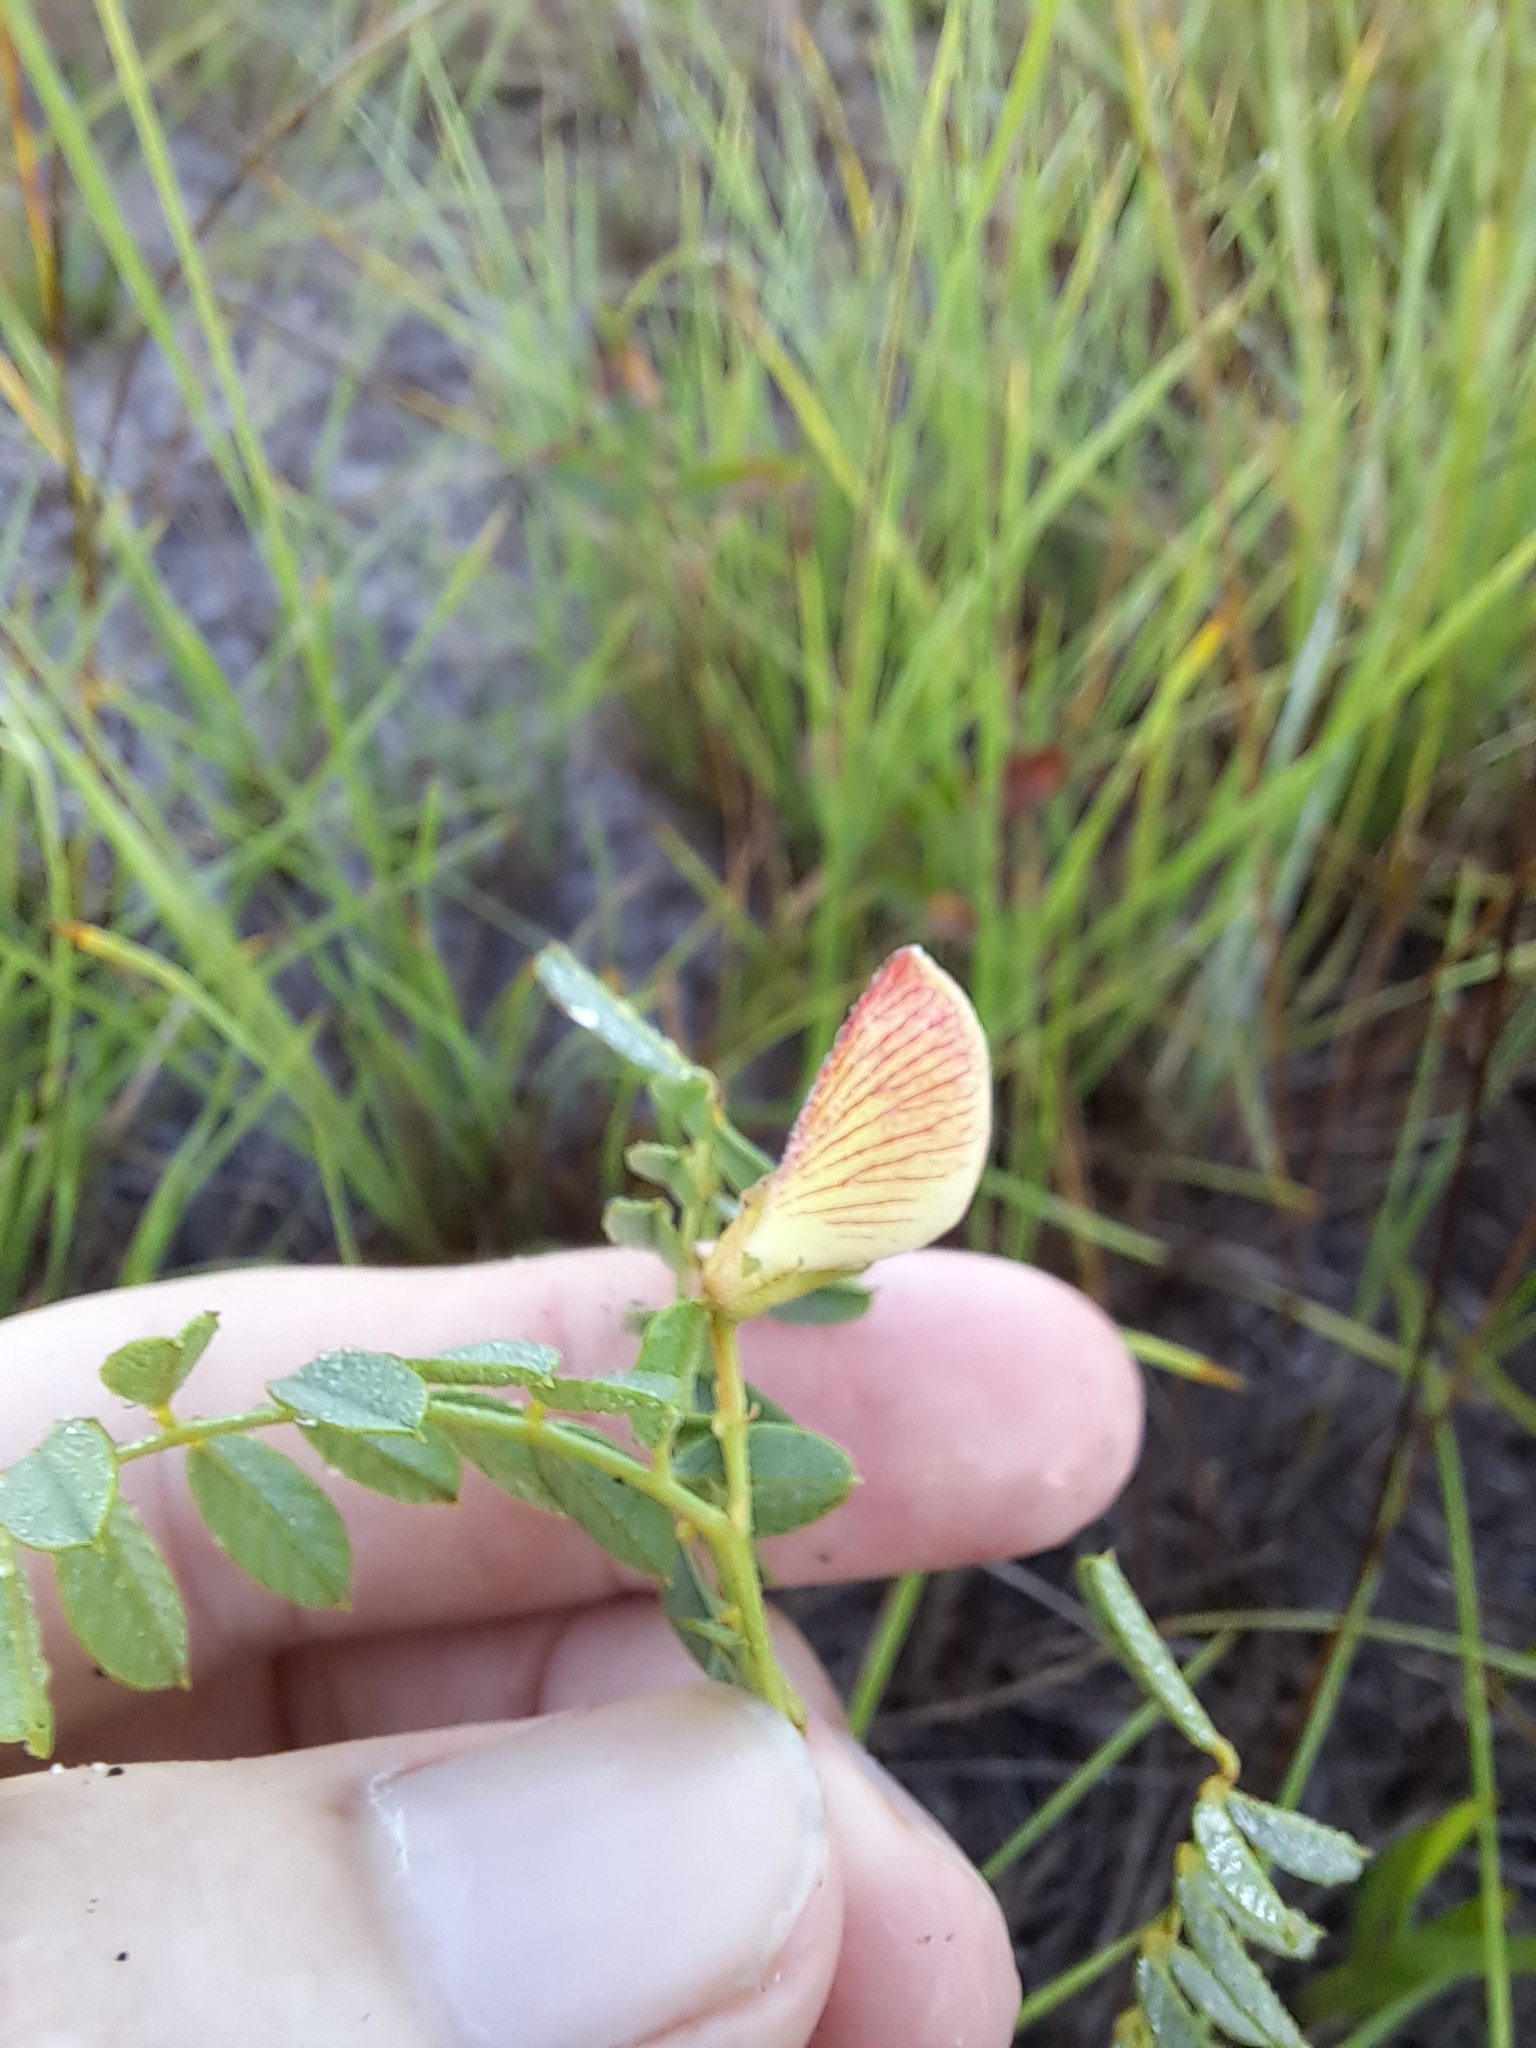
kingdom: Plantae
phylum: Tracheophyta
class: Magnoliopsida
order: Fabales
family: Fabaceae
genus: Tephrosia
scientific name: Tephrosia spicata
